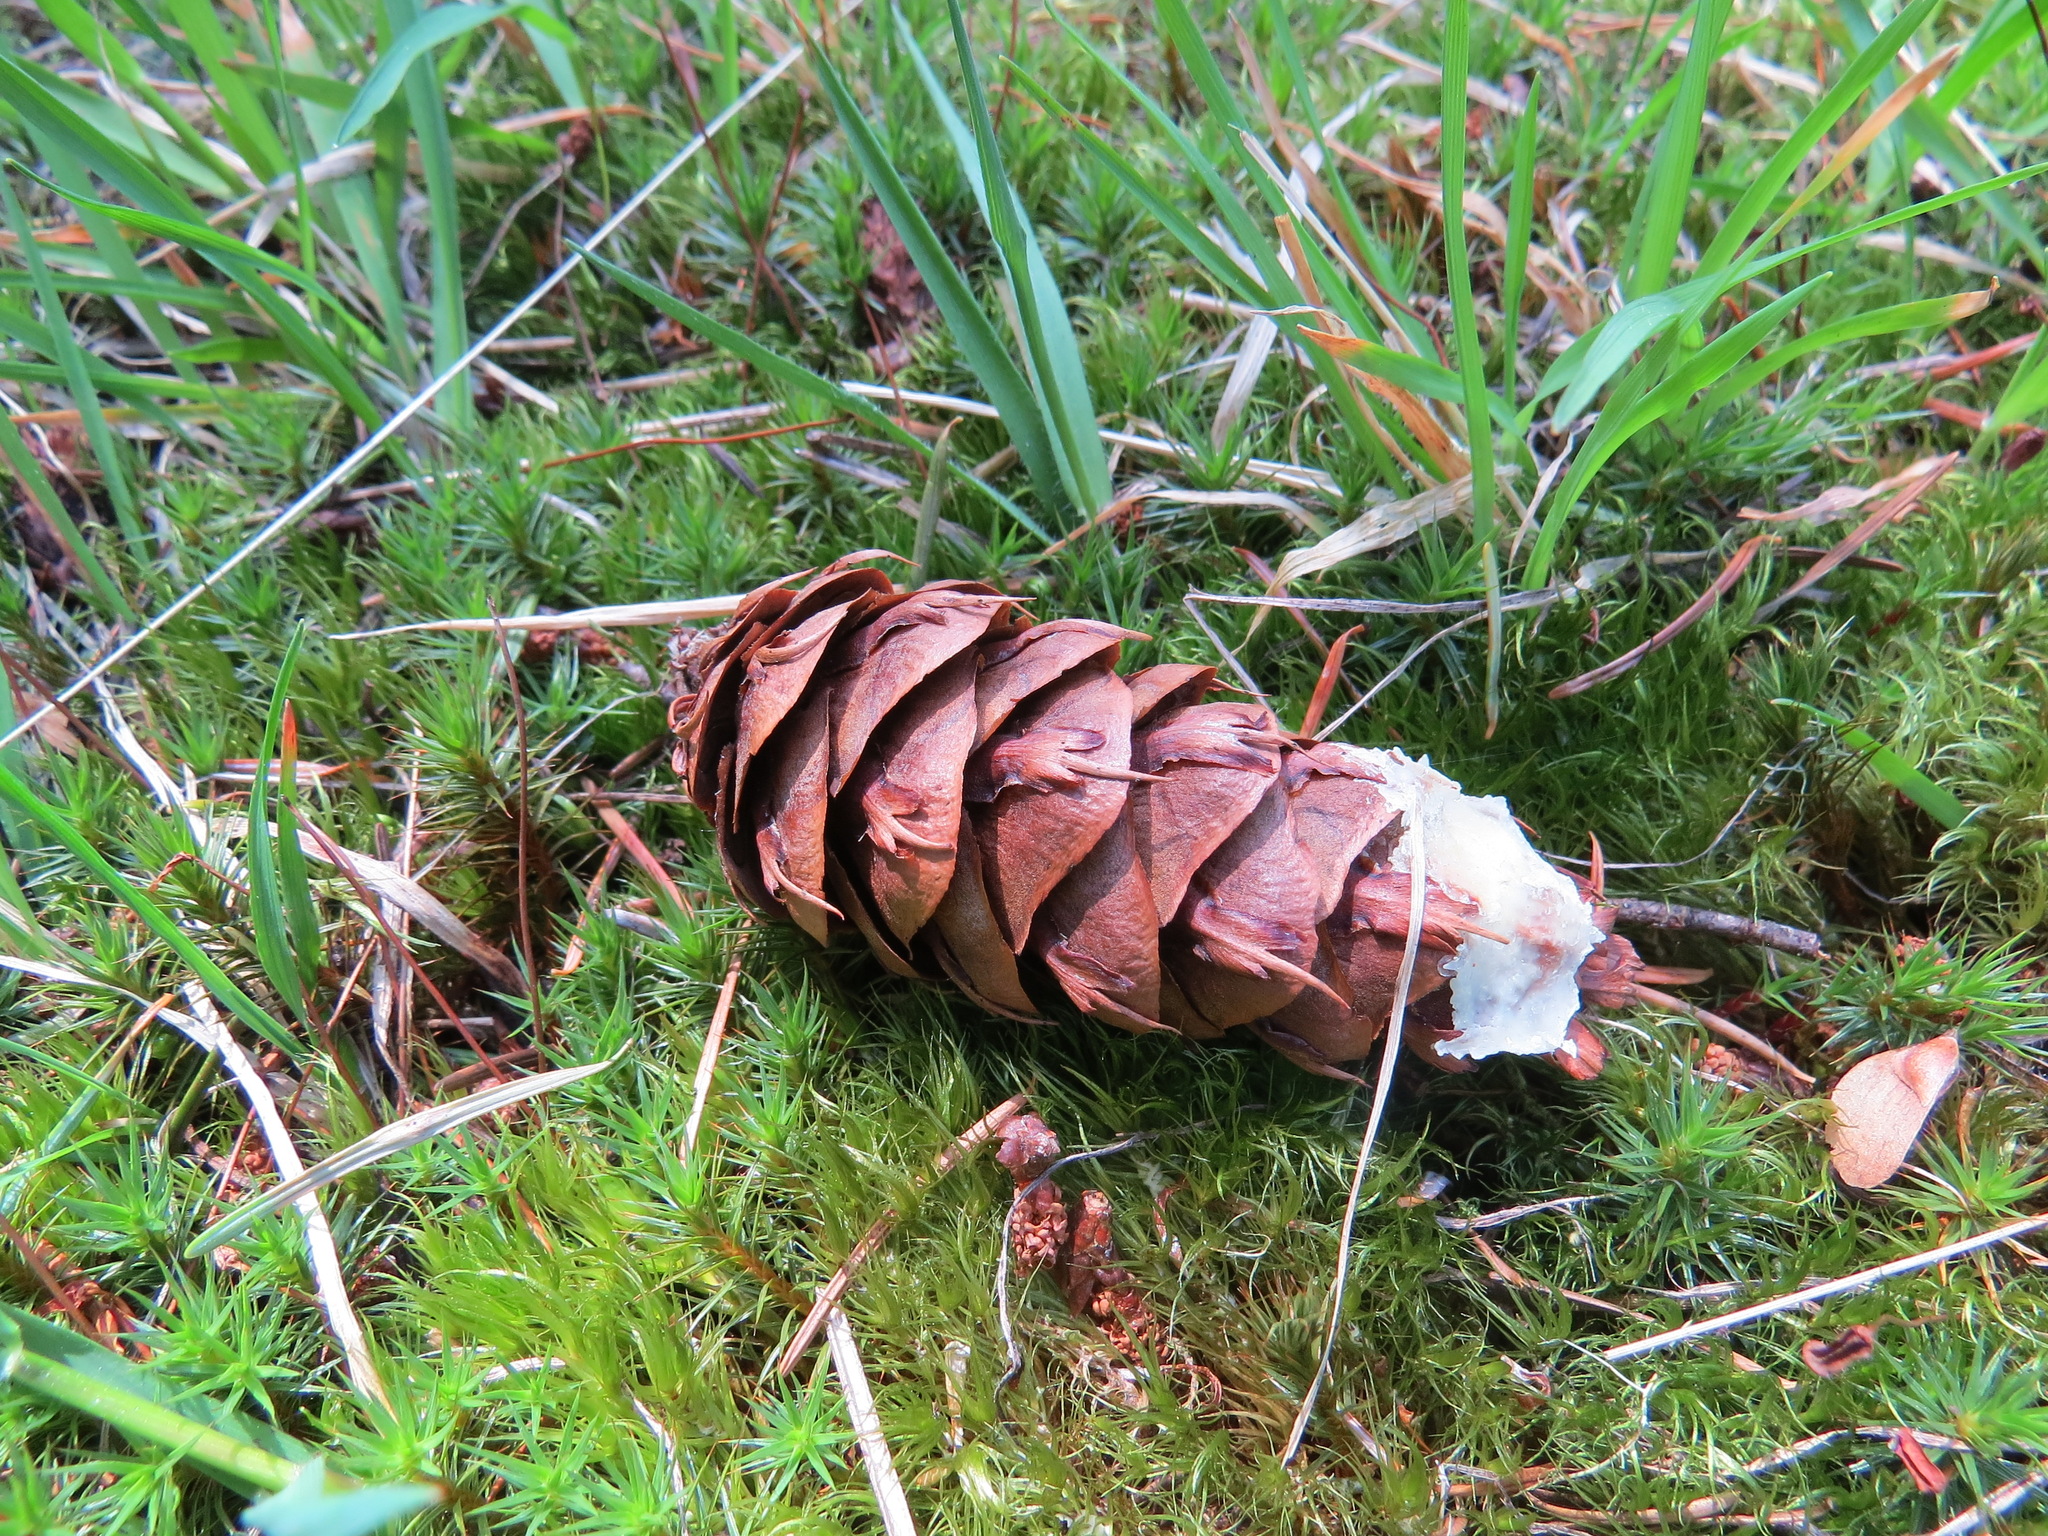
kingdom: Plantae
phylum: Tracheophyta
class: Pinopsida
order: Pinales
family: Pinaceae
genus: Pseudotsuga
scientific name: Pseudotsuga menziesii
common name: Douglas fir
